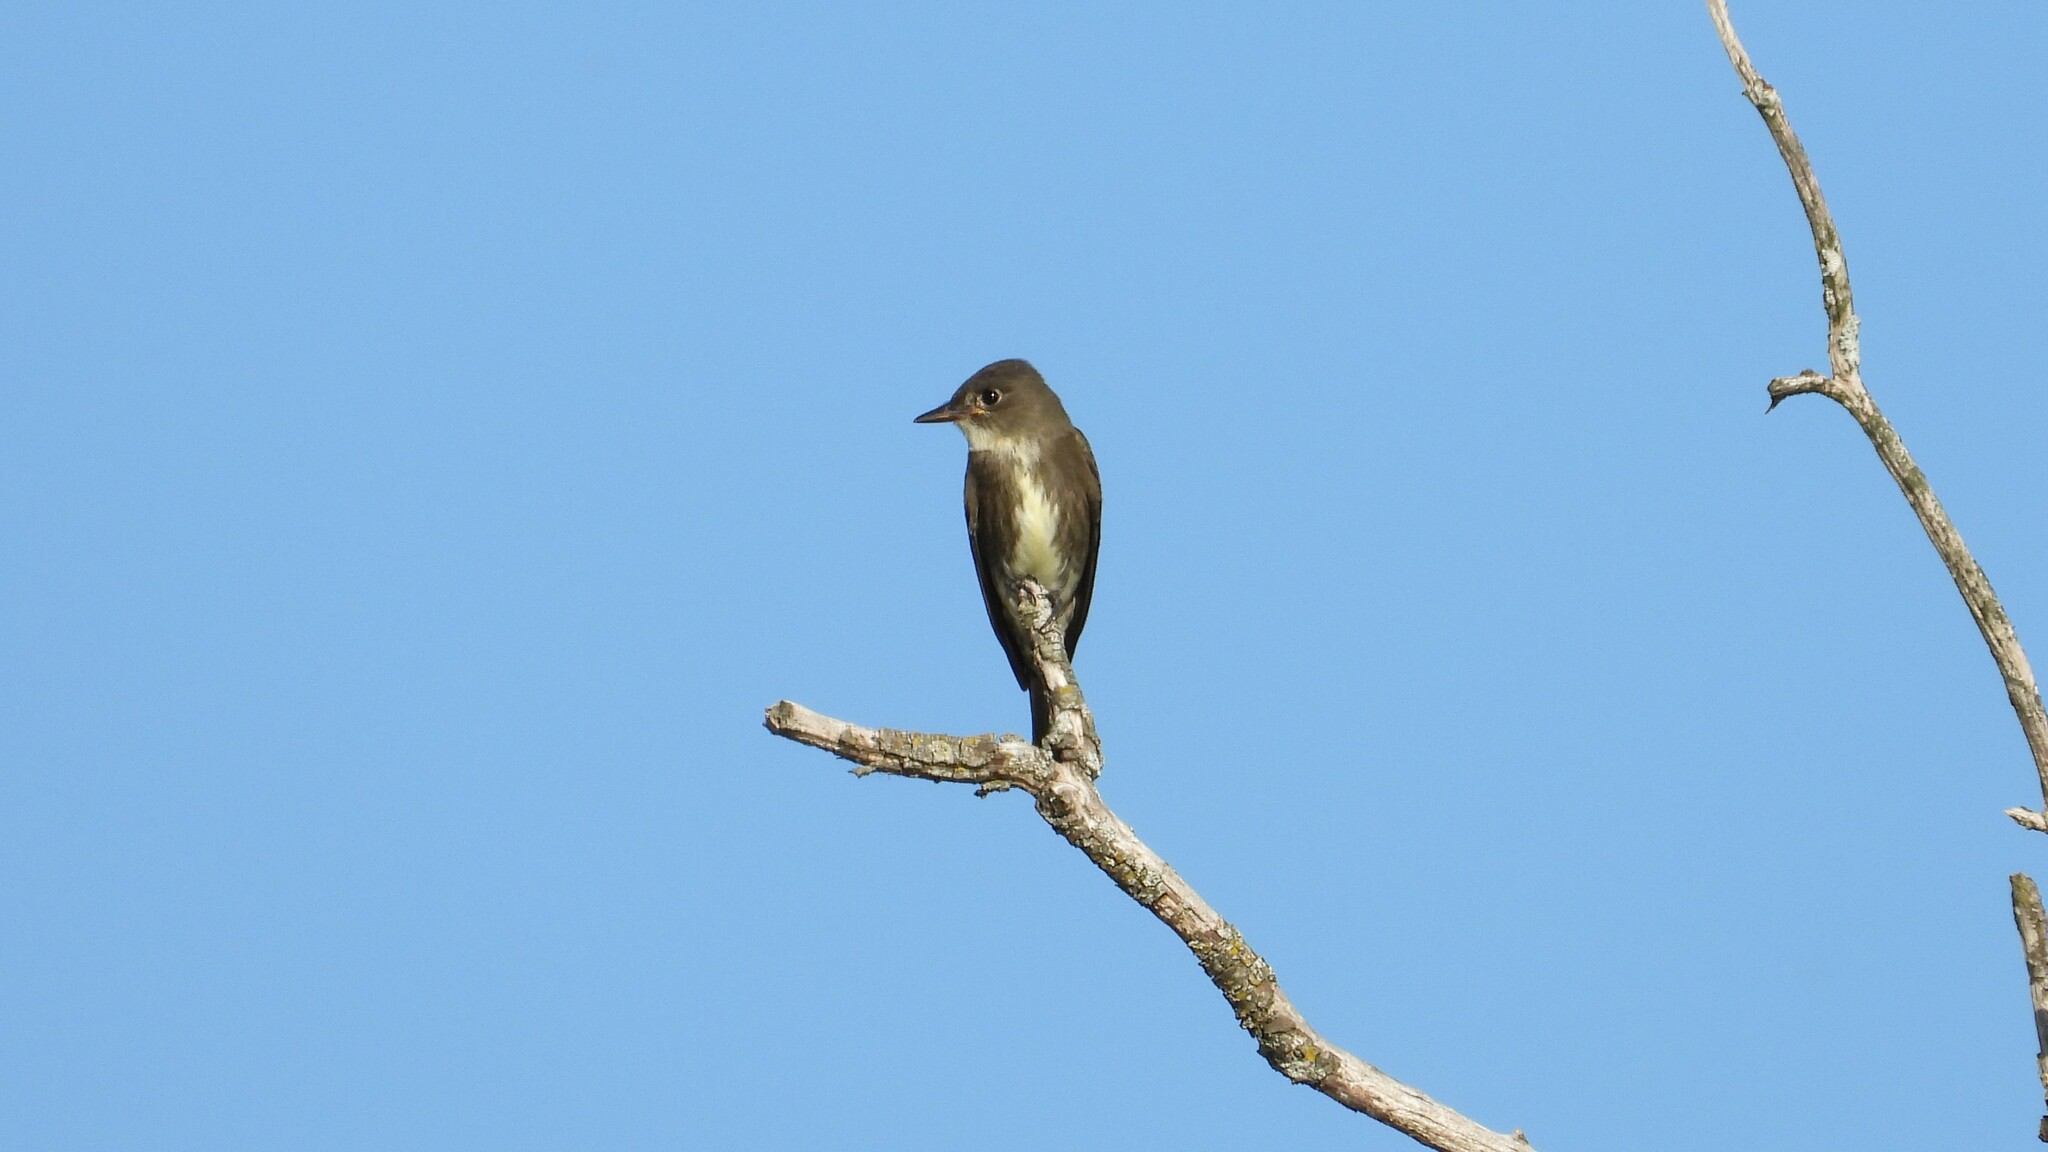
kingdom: Animalia
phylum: Chordata
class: Aves
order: Passeriformes
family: Tyrannidae
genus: Contopus
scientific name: Contopus cooperi
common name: Olive-sided flycatcher
